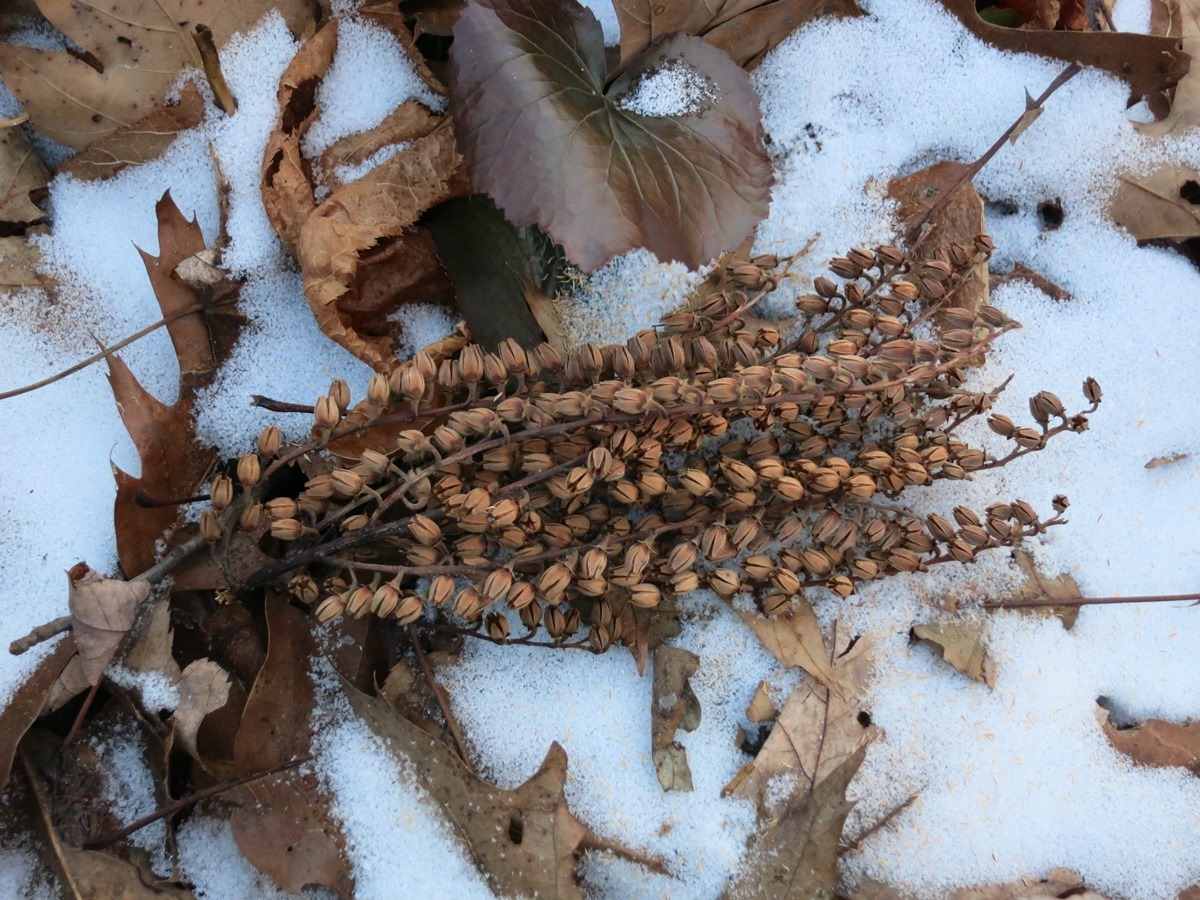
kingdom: Plantae
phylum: Tracheophyta
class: Magnoliopsida
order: Ericales
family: Ericaceae
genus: Oxydendrum
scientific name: Oxydendrum arboreum
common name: Sourwood
